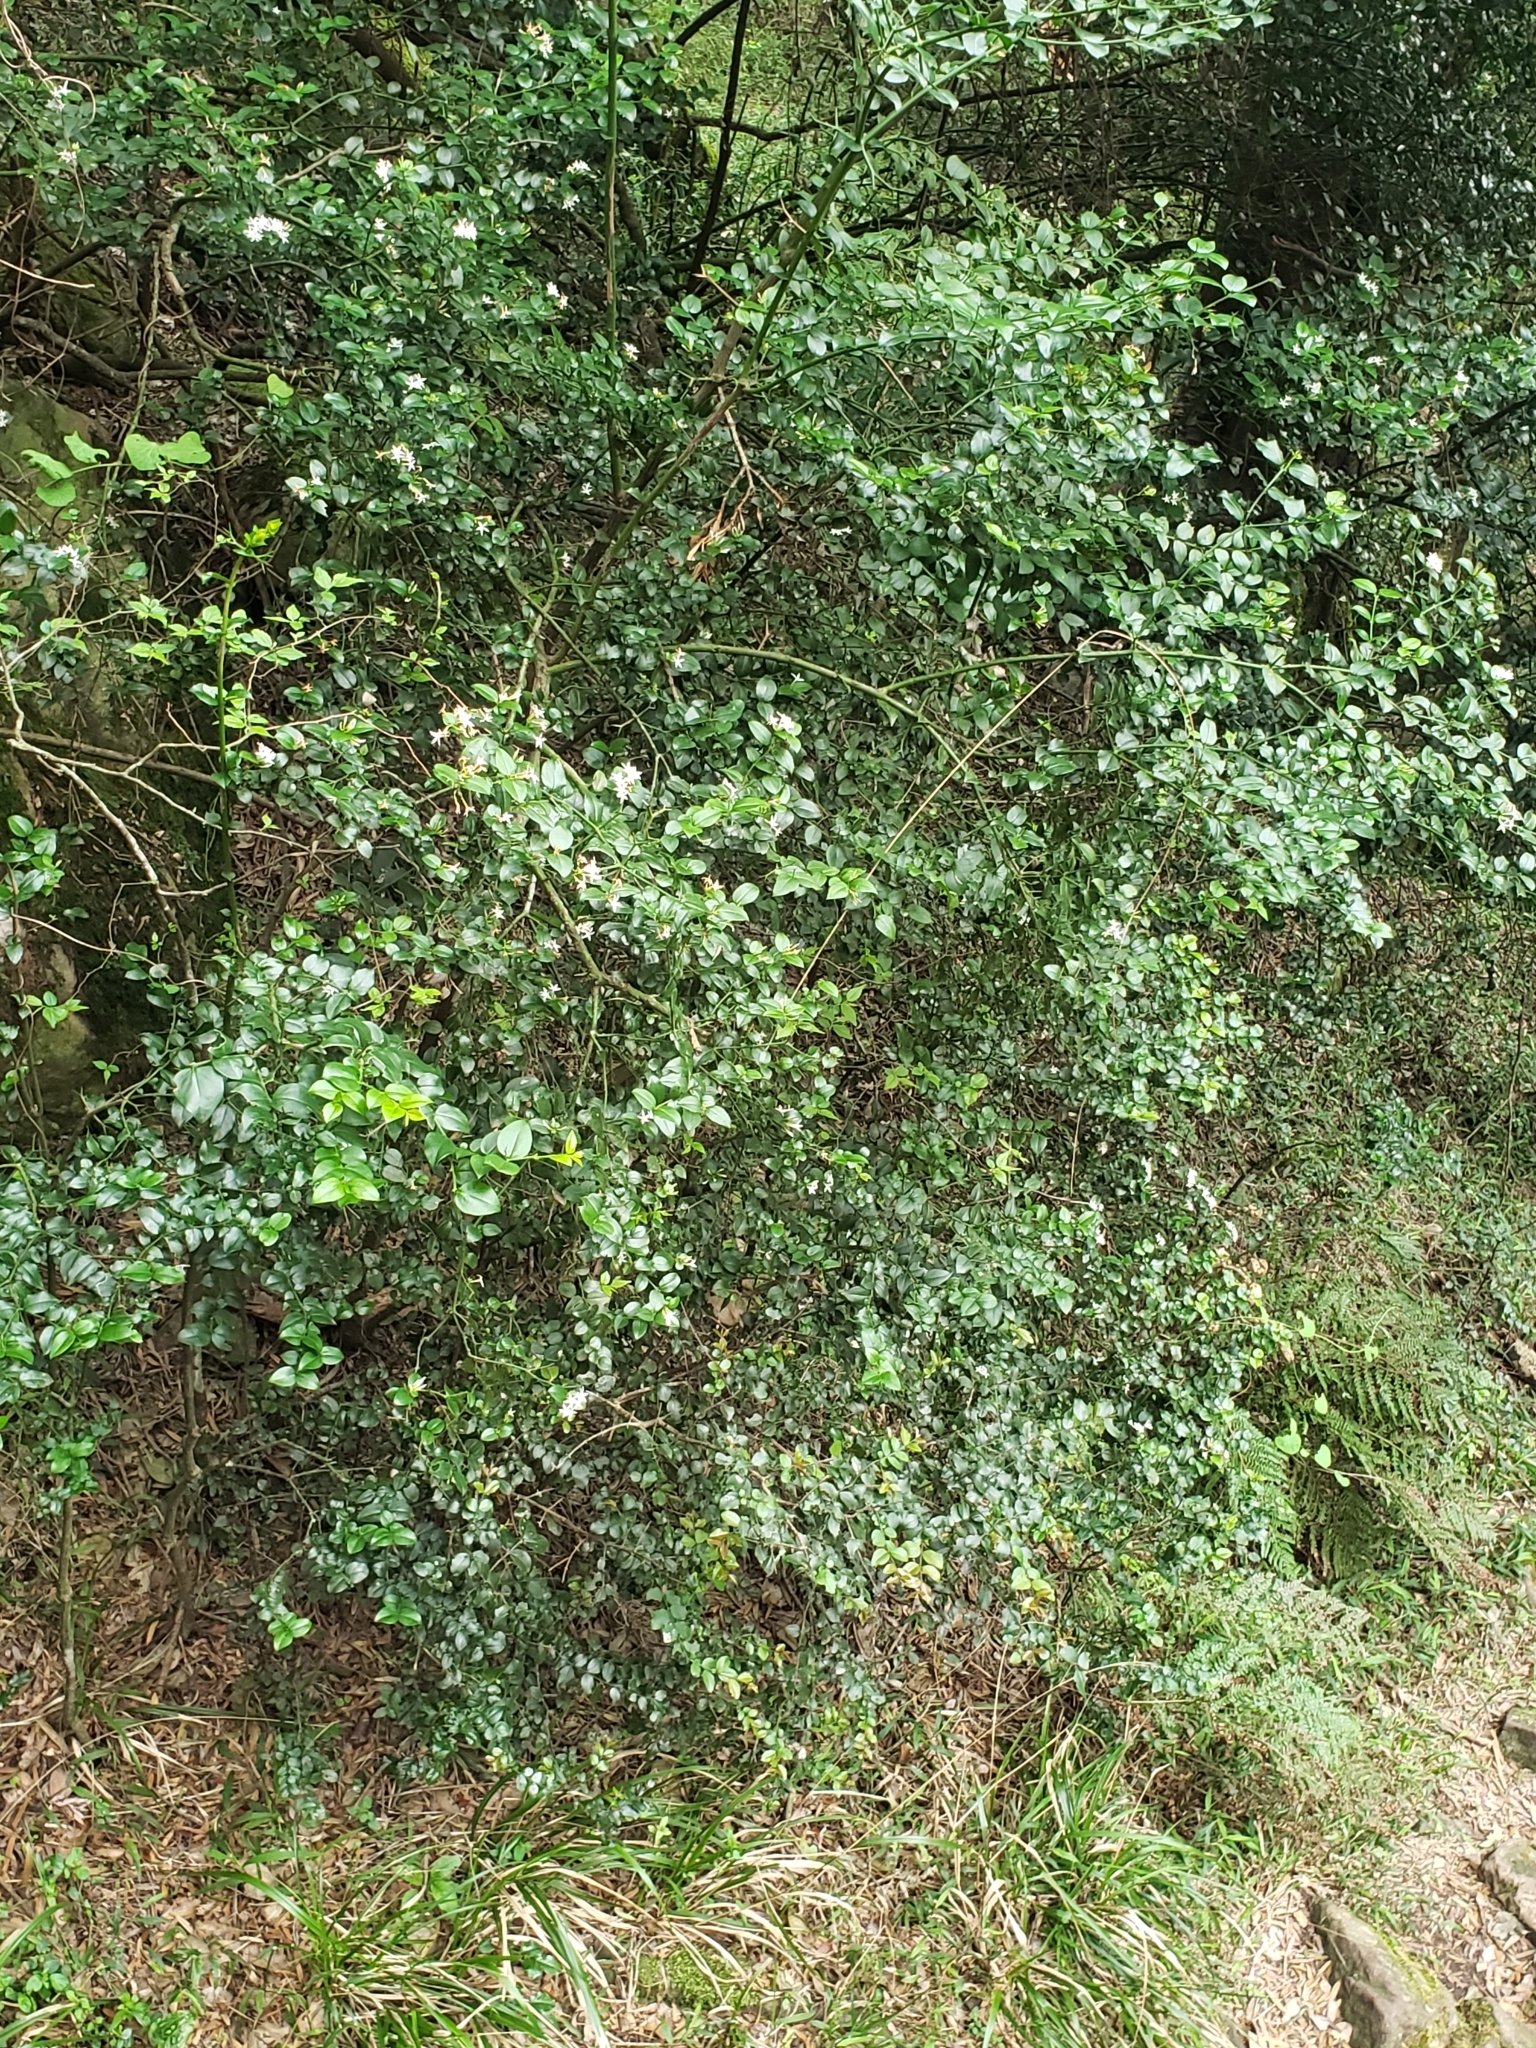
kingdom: Plantae
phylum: Tracheophyta
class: Magnoliopsida
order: Gentianales
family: Apocynaceae
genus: Carissa
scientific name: Carissa bispinosa
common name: Forest num-num
